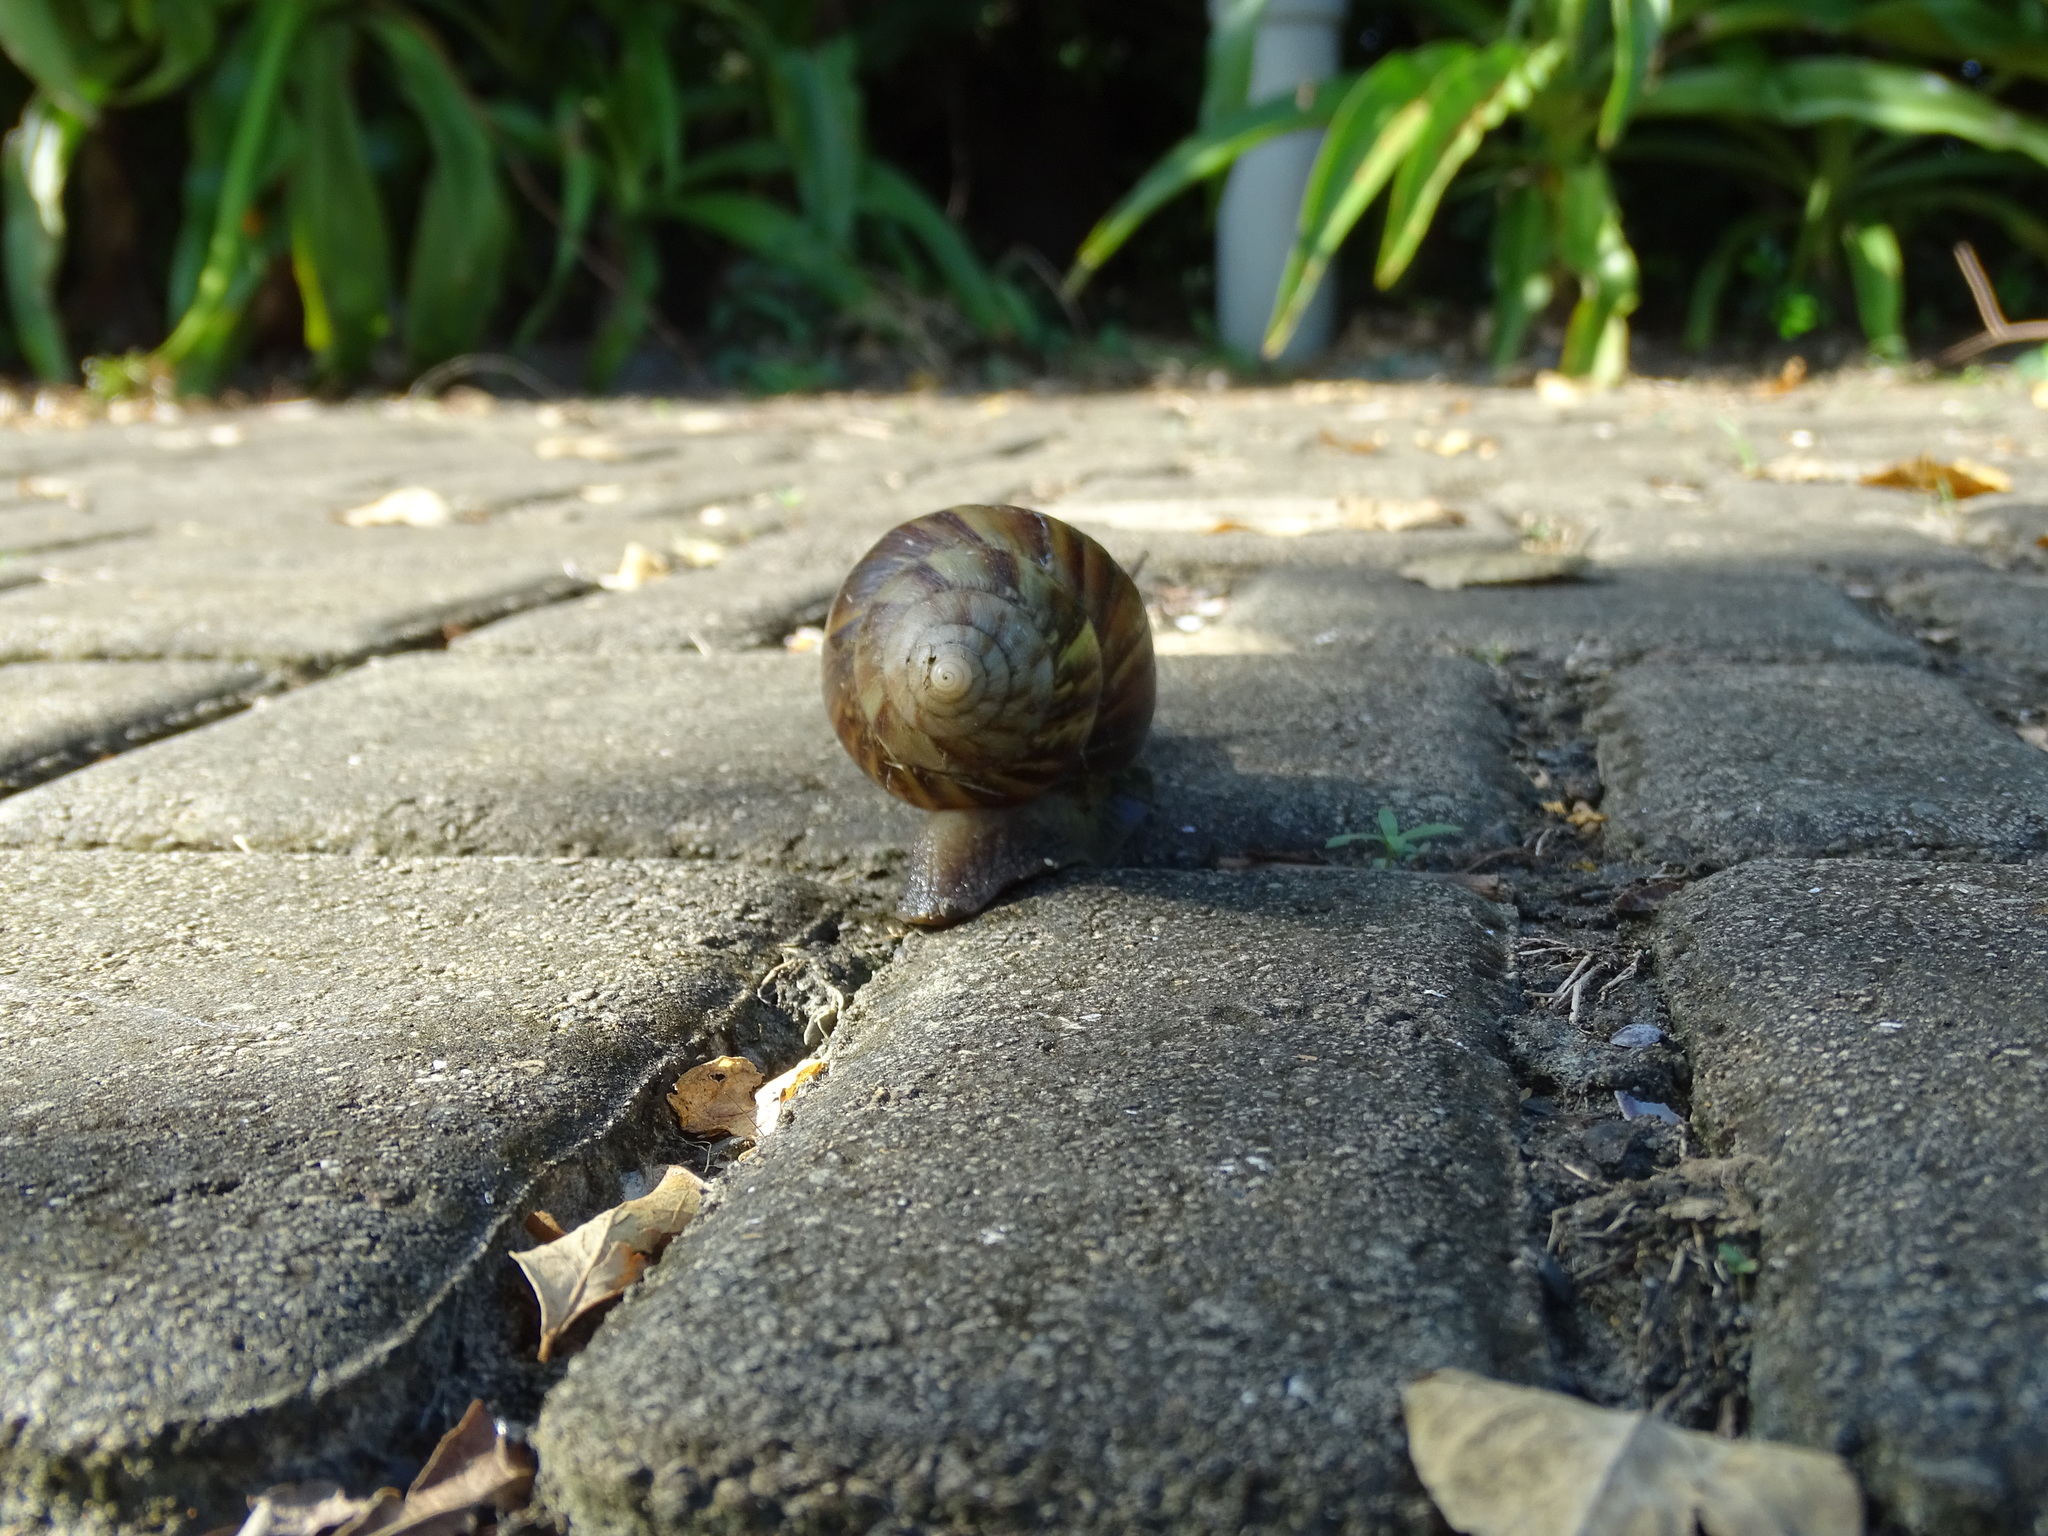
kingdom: Animalia
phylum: Mollusca
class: Gastropoda
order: Stylommatophora
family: Achatinidae
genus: Lissachatina
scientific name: Lissachatina fulica
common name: Giant african snail
